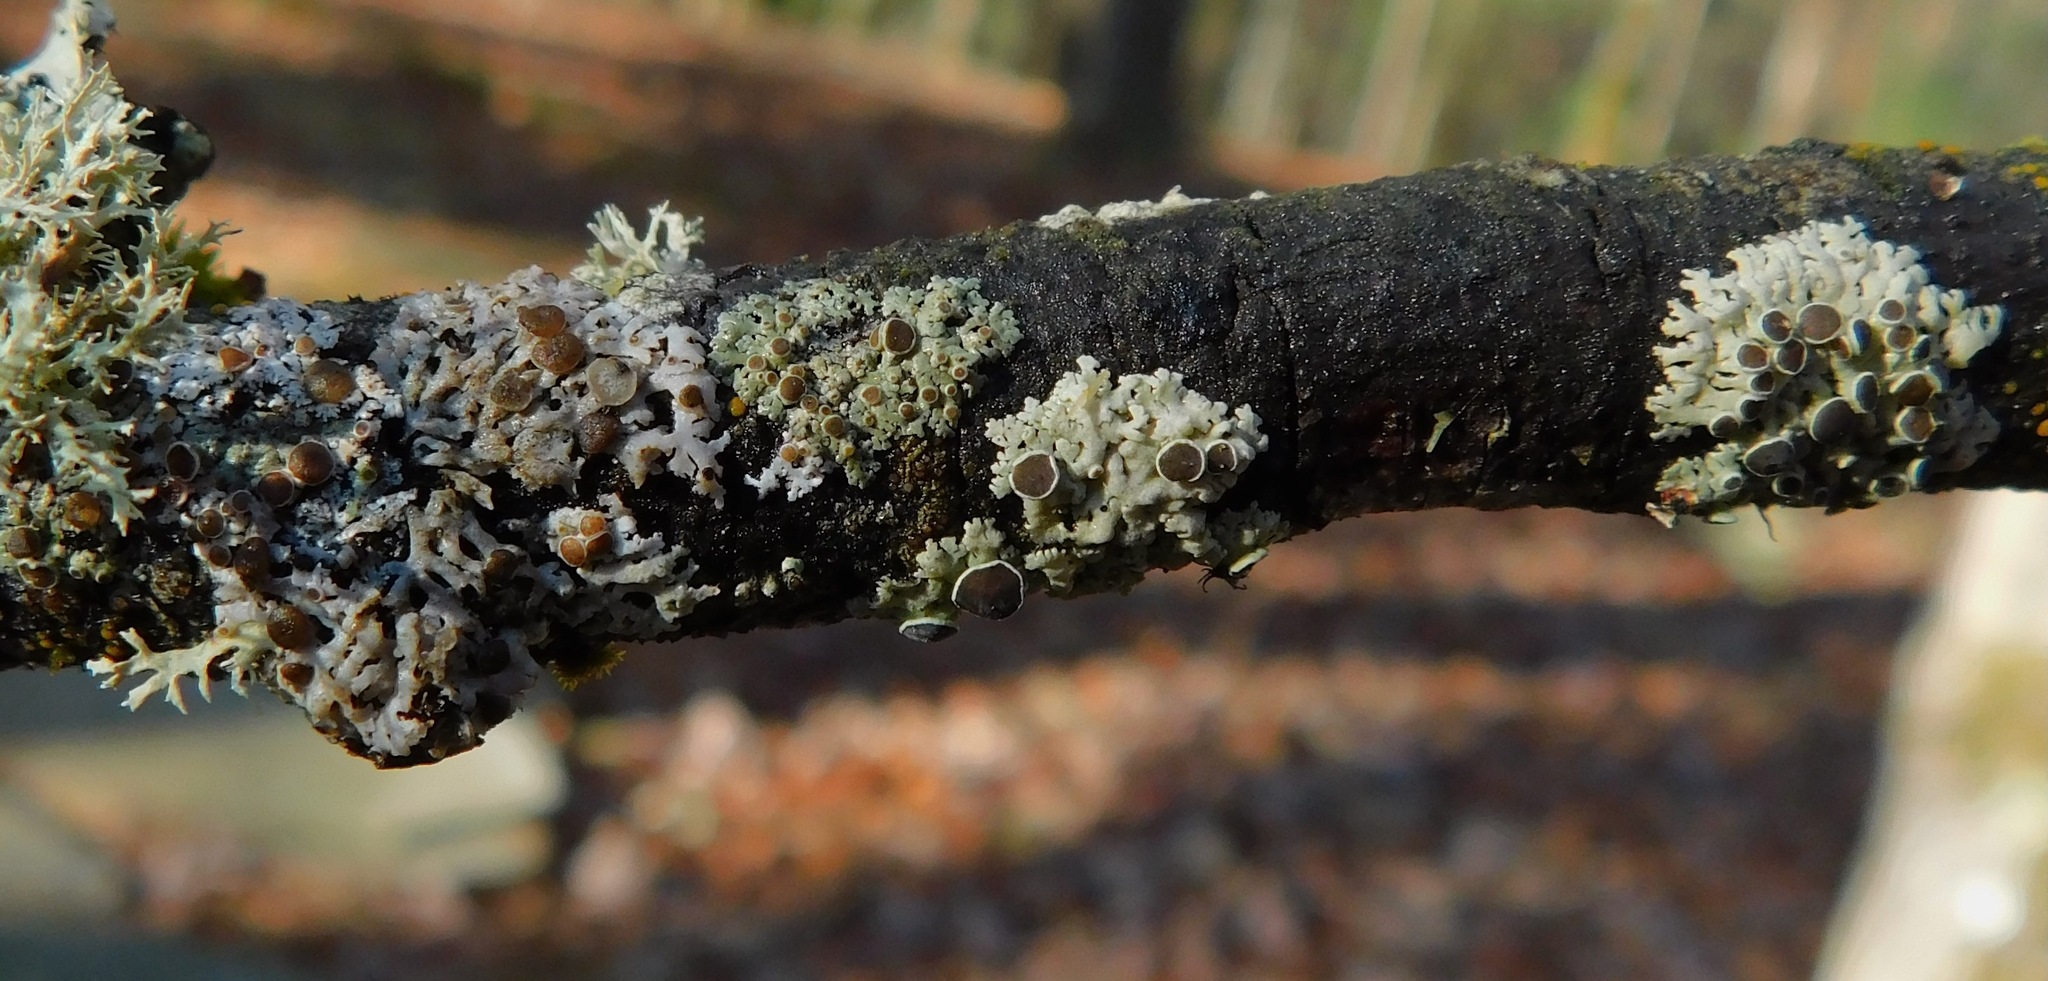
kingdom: Fungi
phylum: Ascomycota
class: Lecanoromycetes
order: Caliciales
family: Physciaceae
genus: Physcia
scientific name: Physcia aipolia
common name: Hoary rosette lichen
